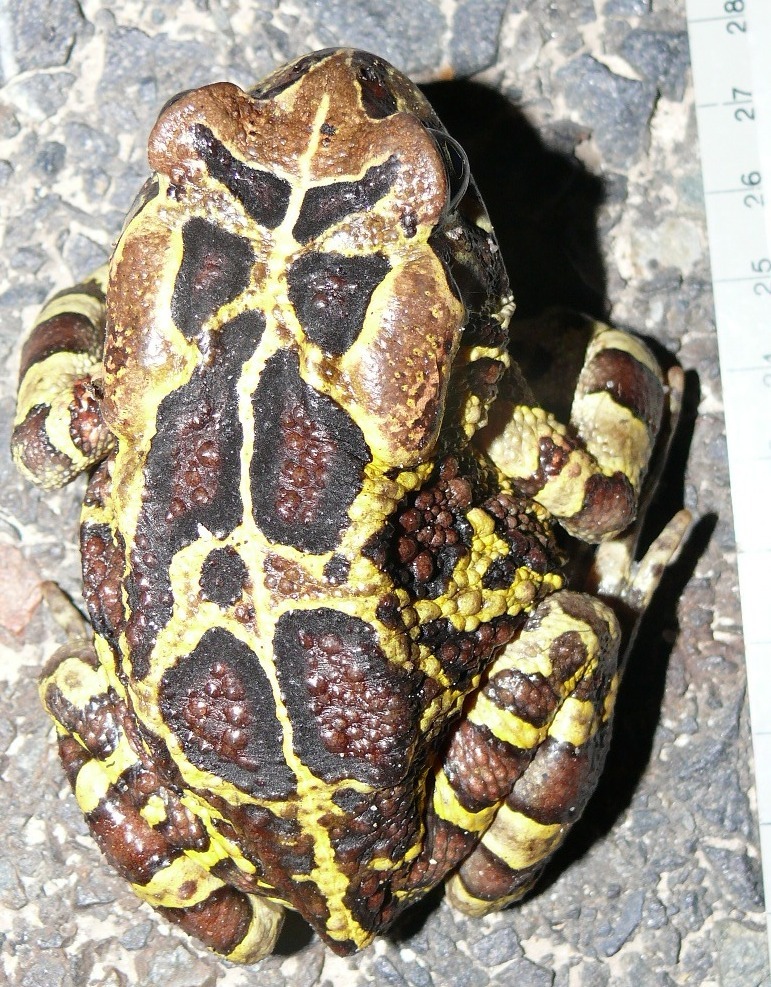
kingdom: Animalia
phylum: Chordata
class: Amphibia
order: Anura
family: Bufonidae
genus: Sclerophrys
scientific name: Sclerophrys pantherina
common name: Panther toad
